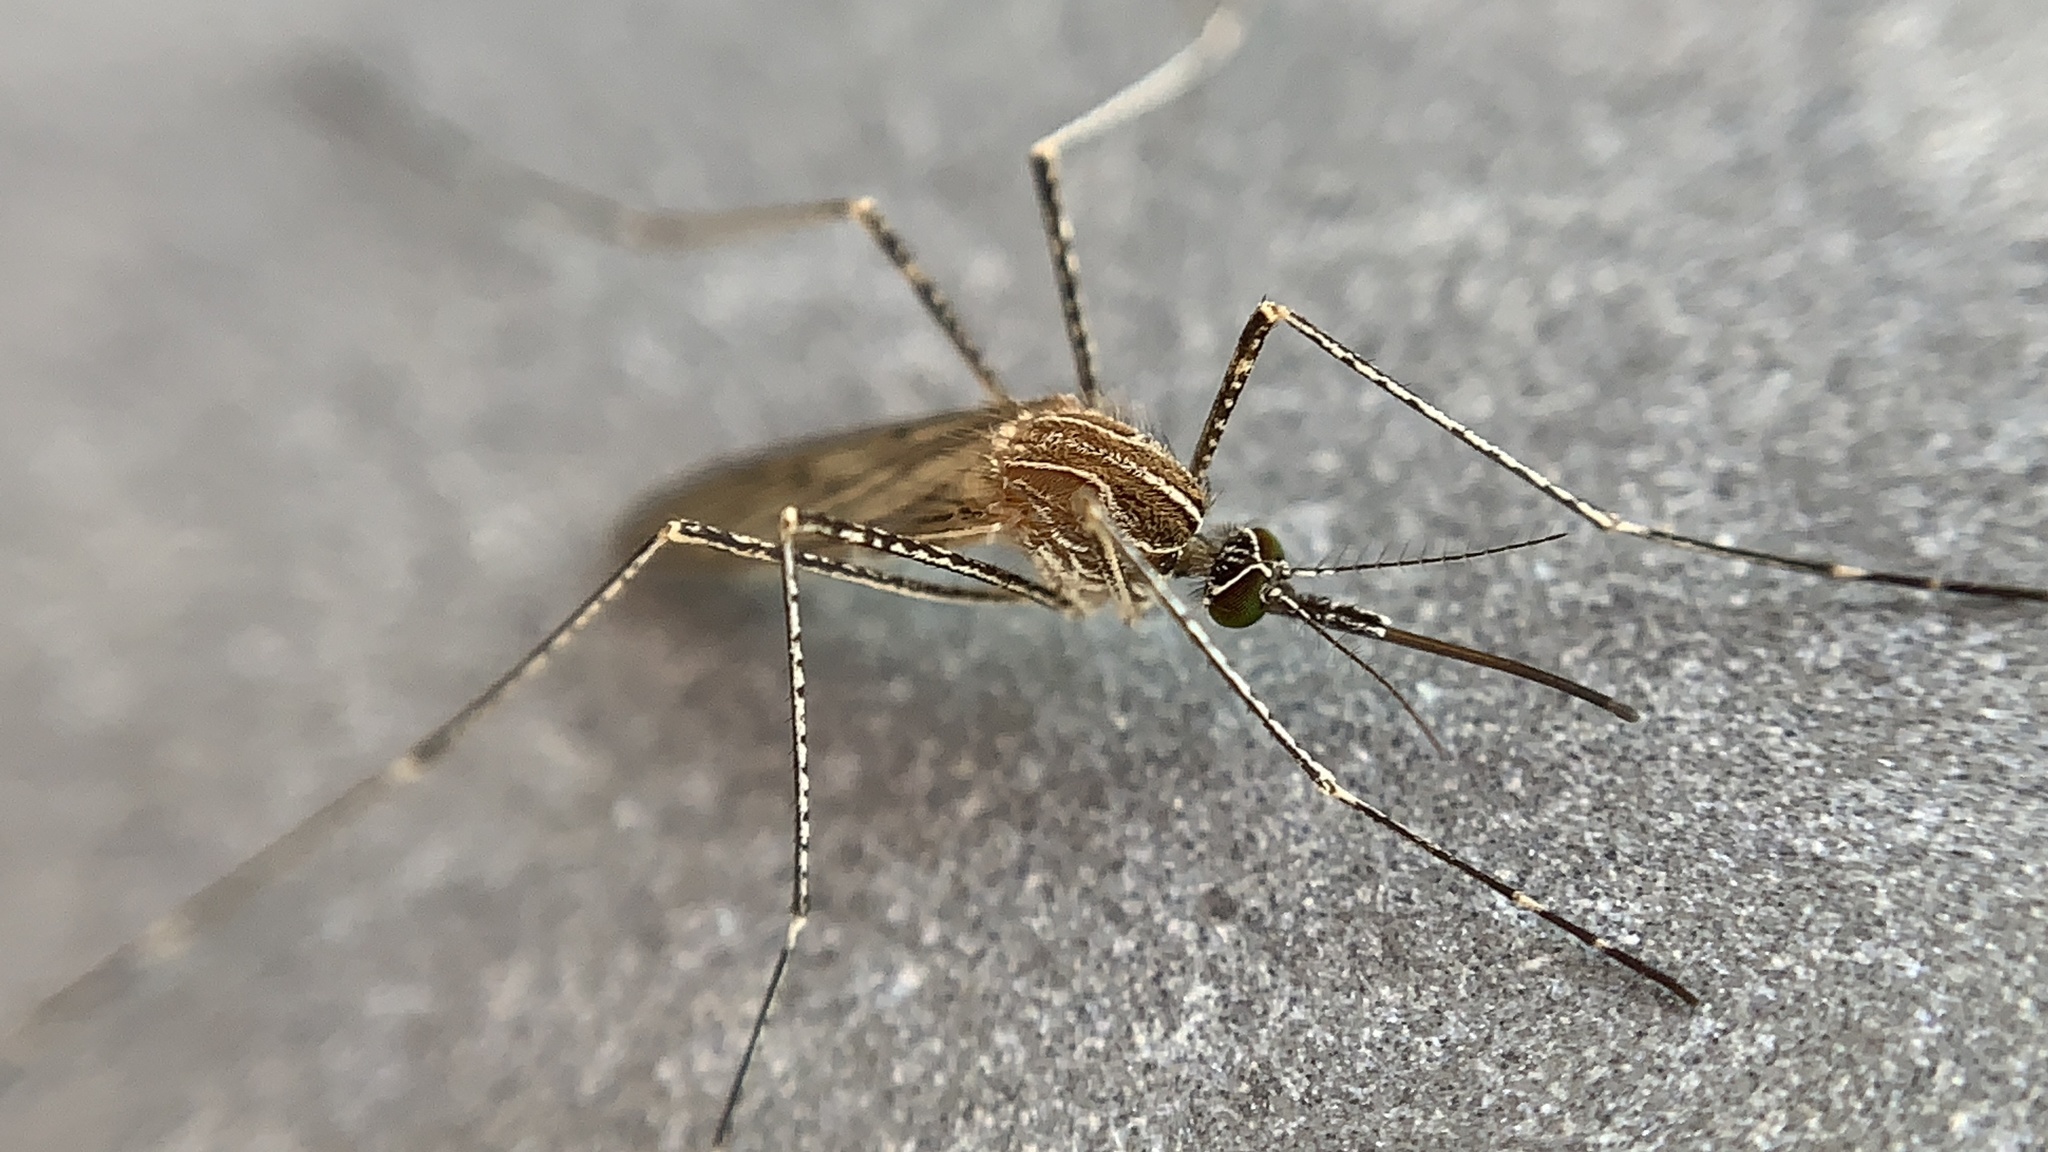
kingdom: Animalia
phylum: Arthropoda
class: Insecta
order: Diptera
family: Culicidae
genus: Culiseta
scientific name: Culiseta longiareolata
